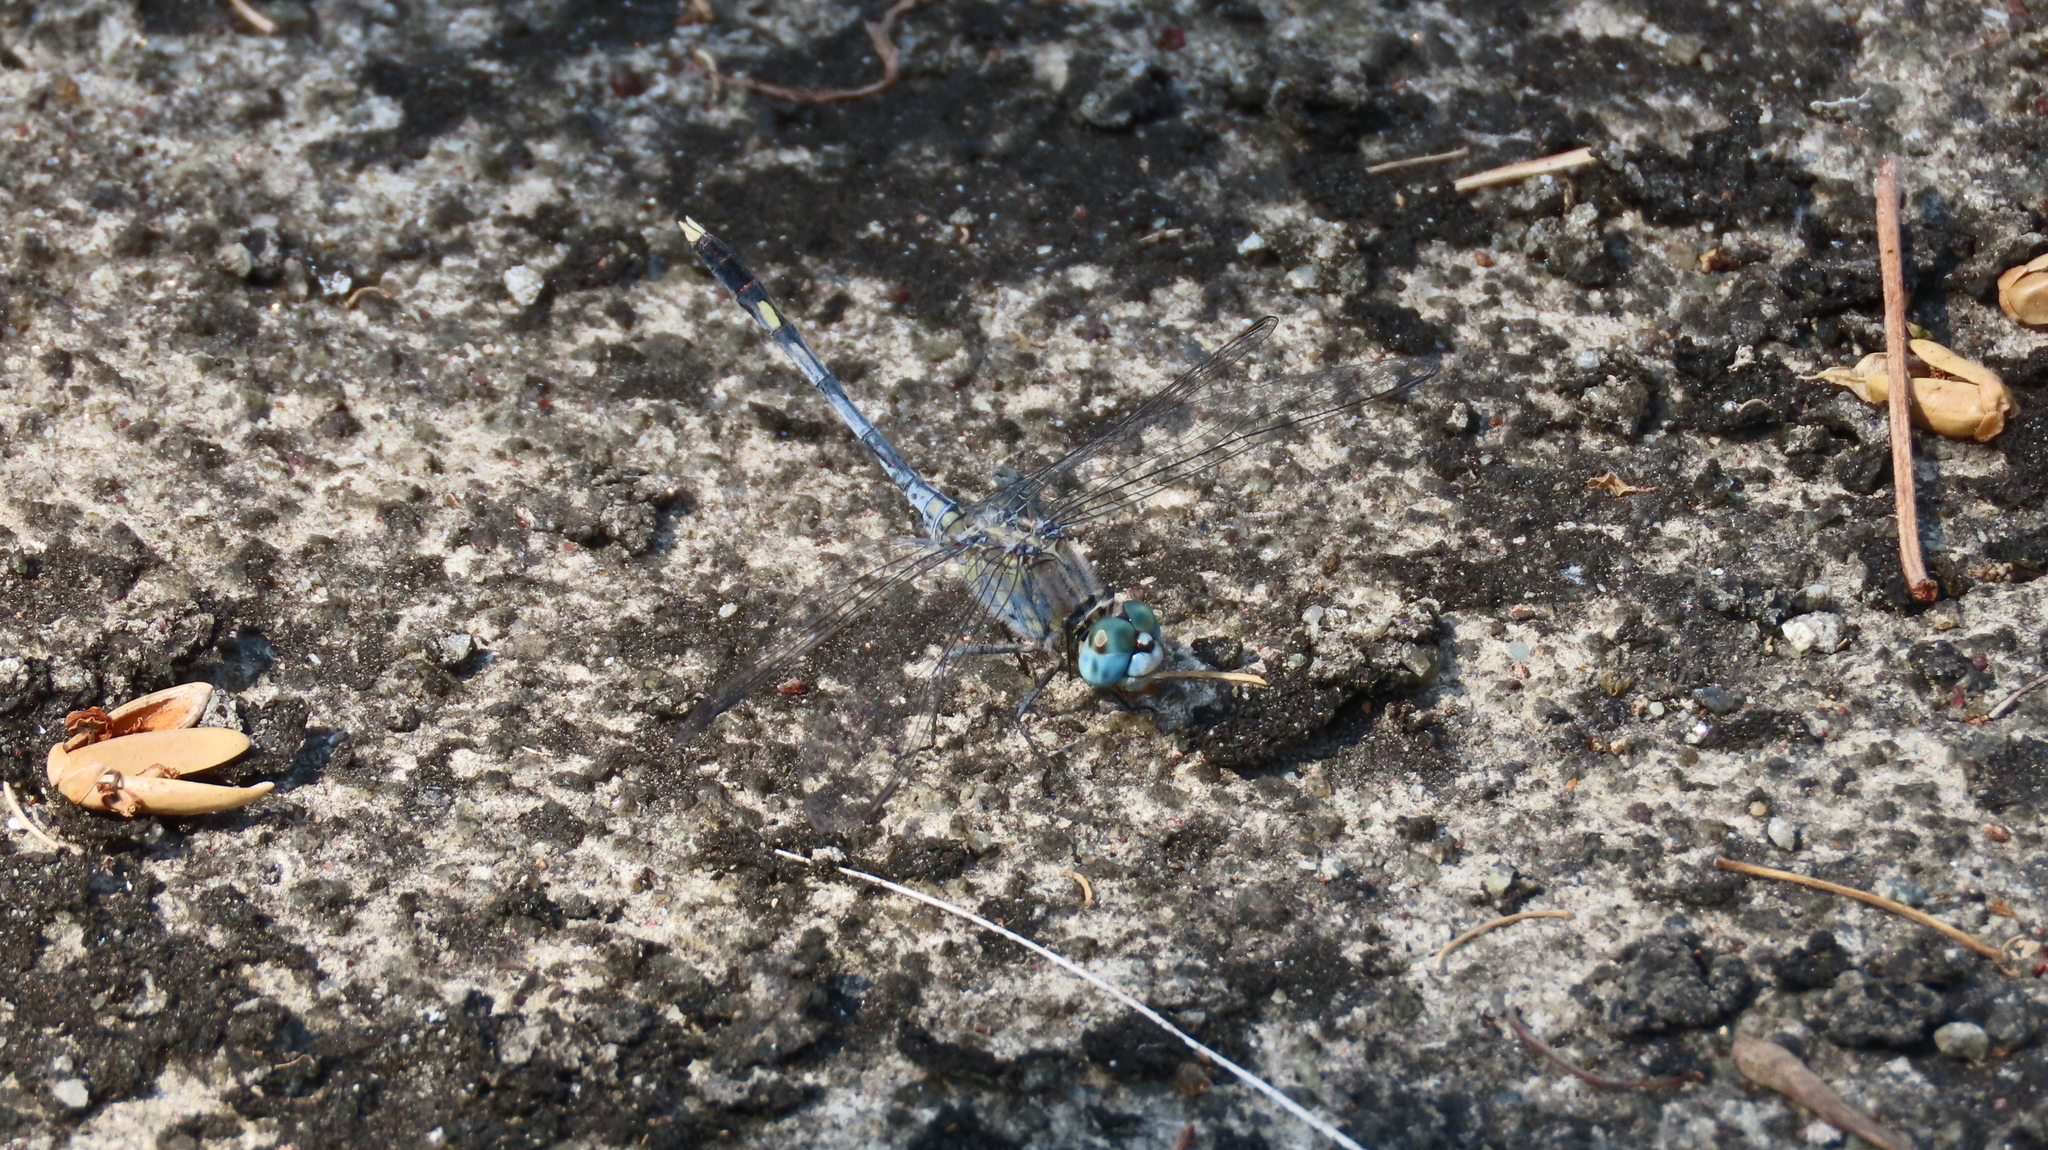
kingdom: Animalia
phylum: Arthropoda
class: Insecta
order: Odonata
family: Libellulidae
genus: Diplacodes
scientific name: Diplacodes trivialis
